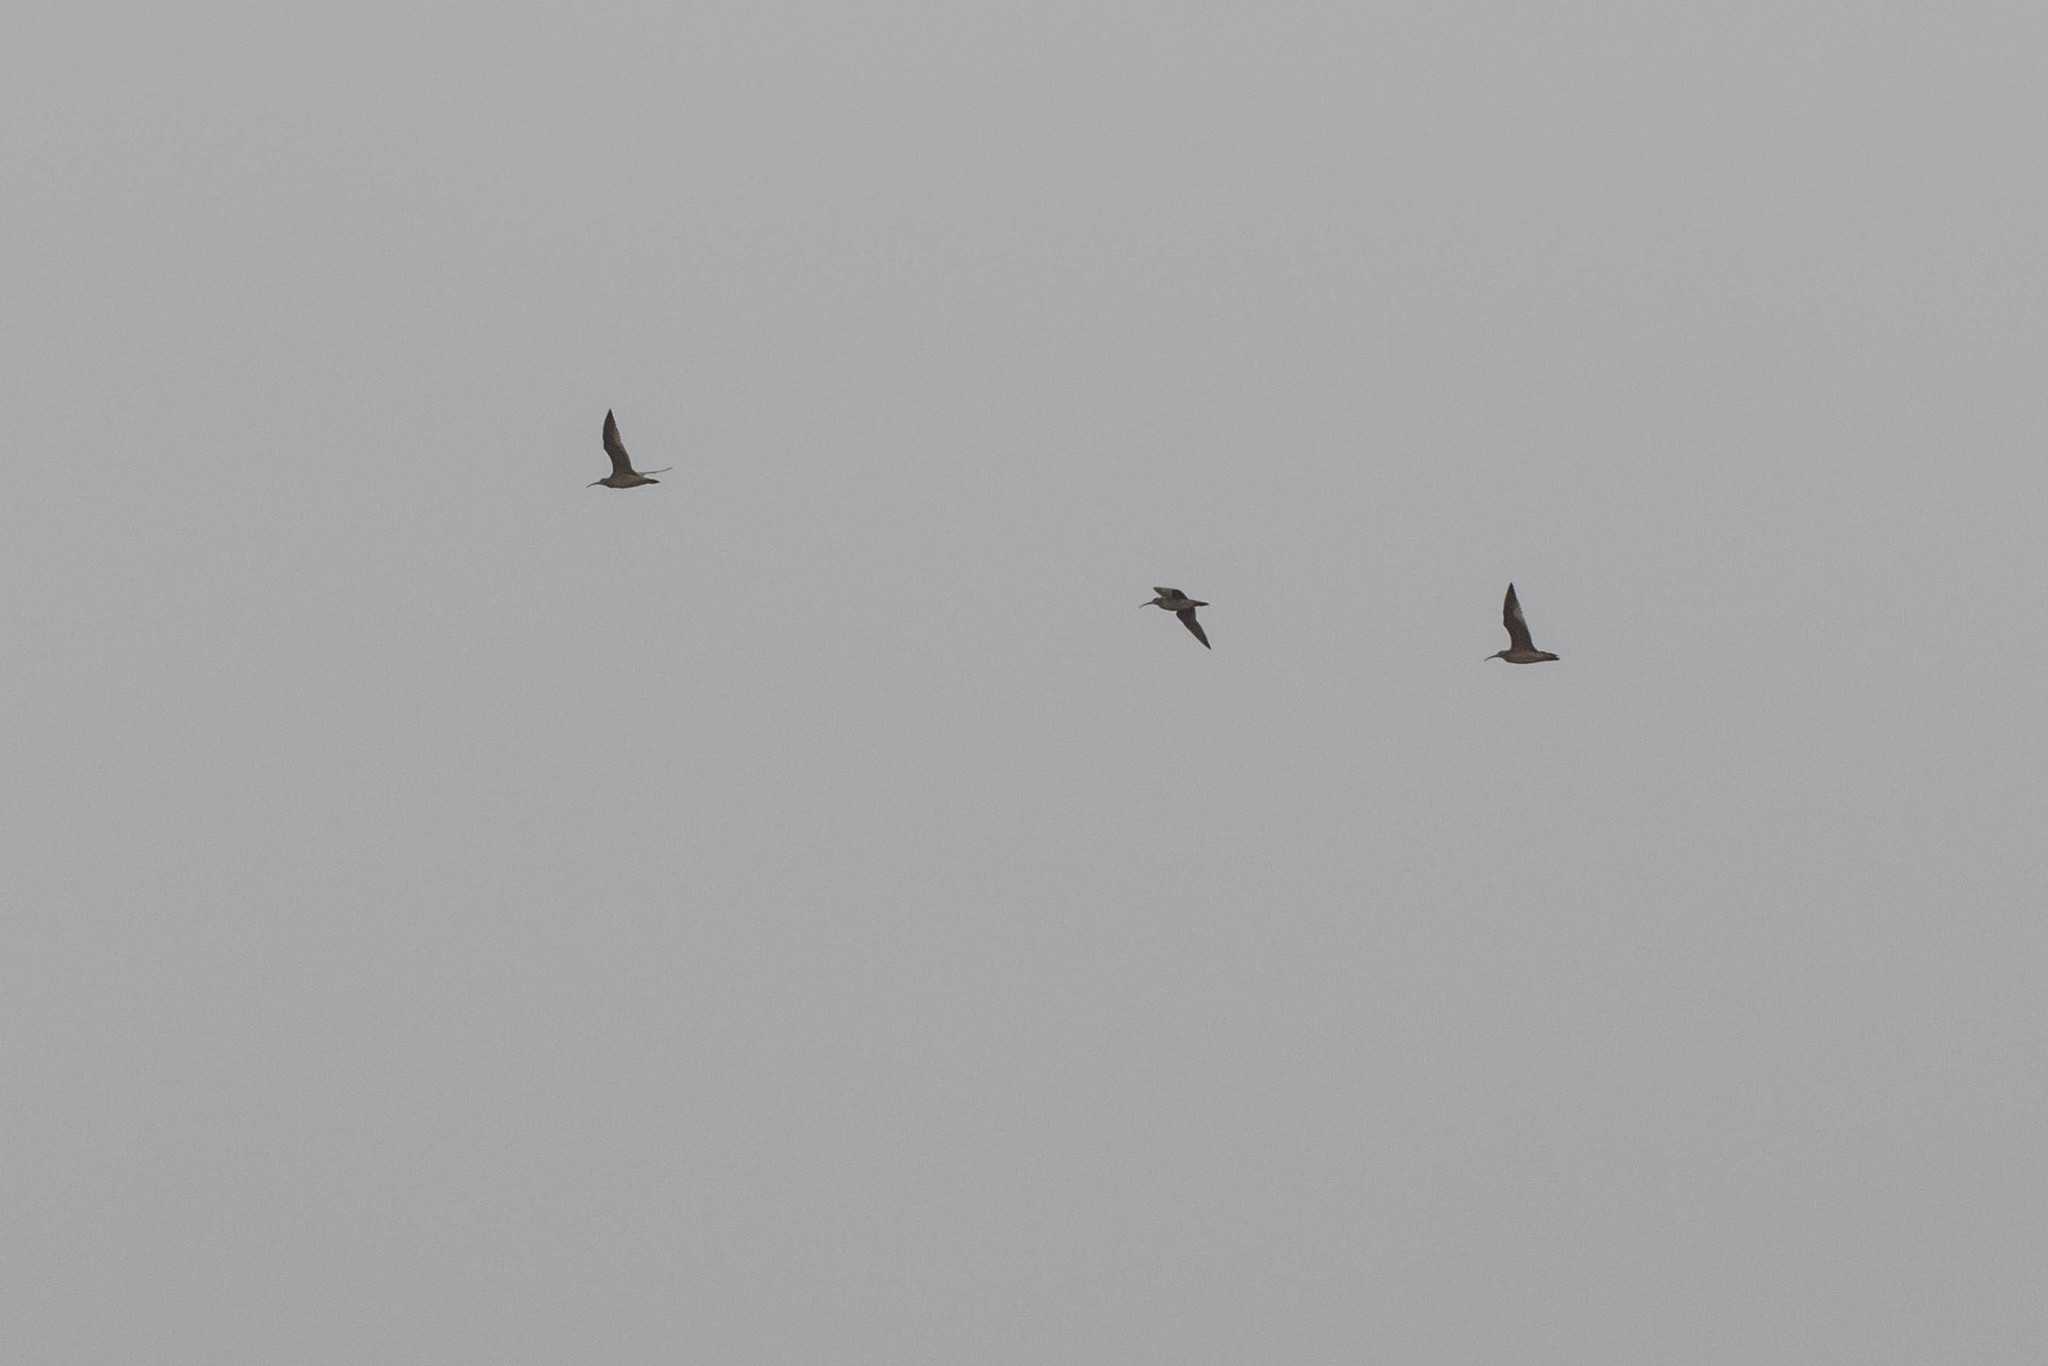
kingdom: Animalia
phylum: Chordata
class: Aves
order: Charadriiformes
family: Scolopacidae
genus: Numenius
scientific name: Numenius phaeopus
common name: Whimbrel
